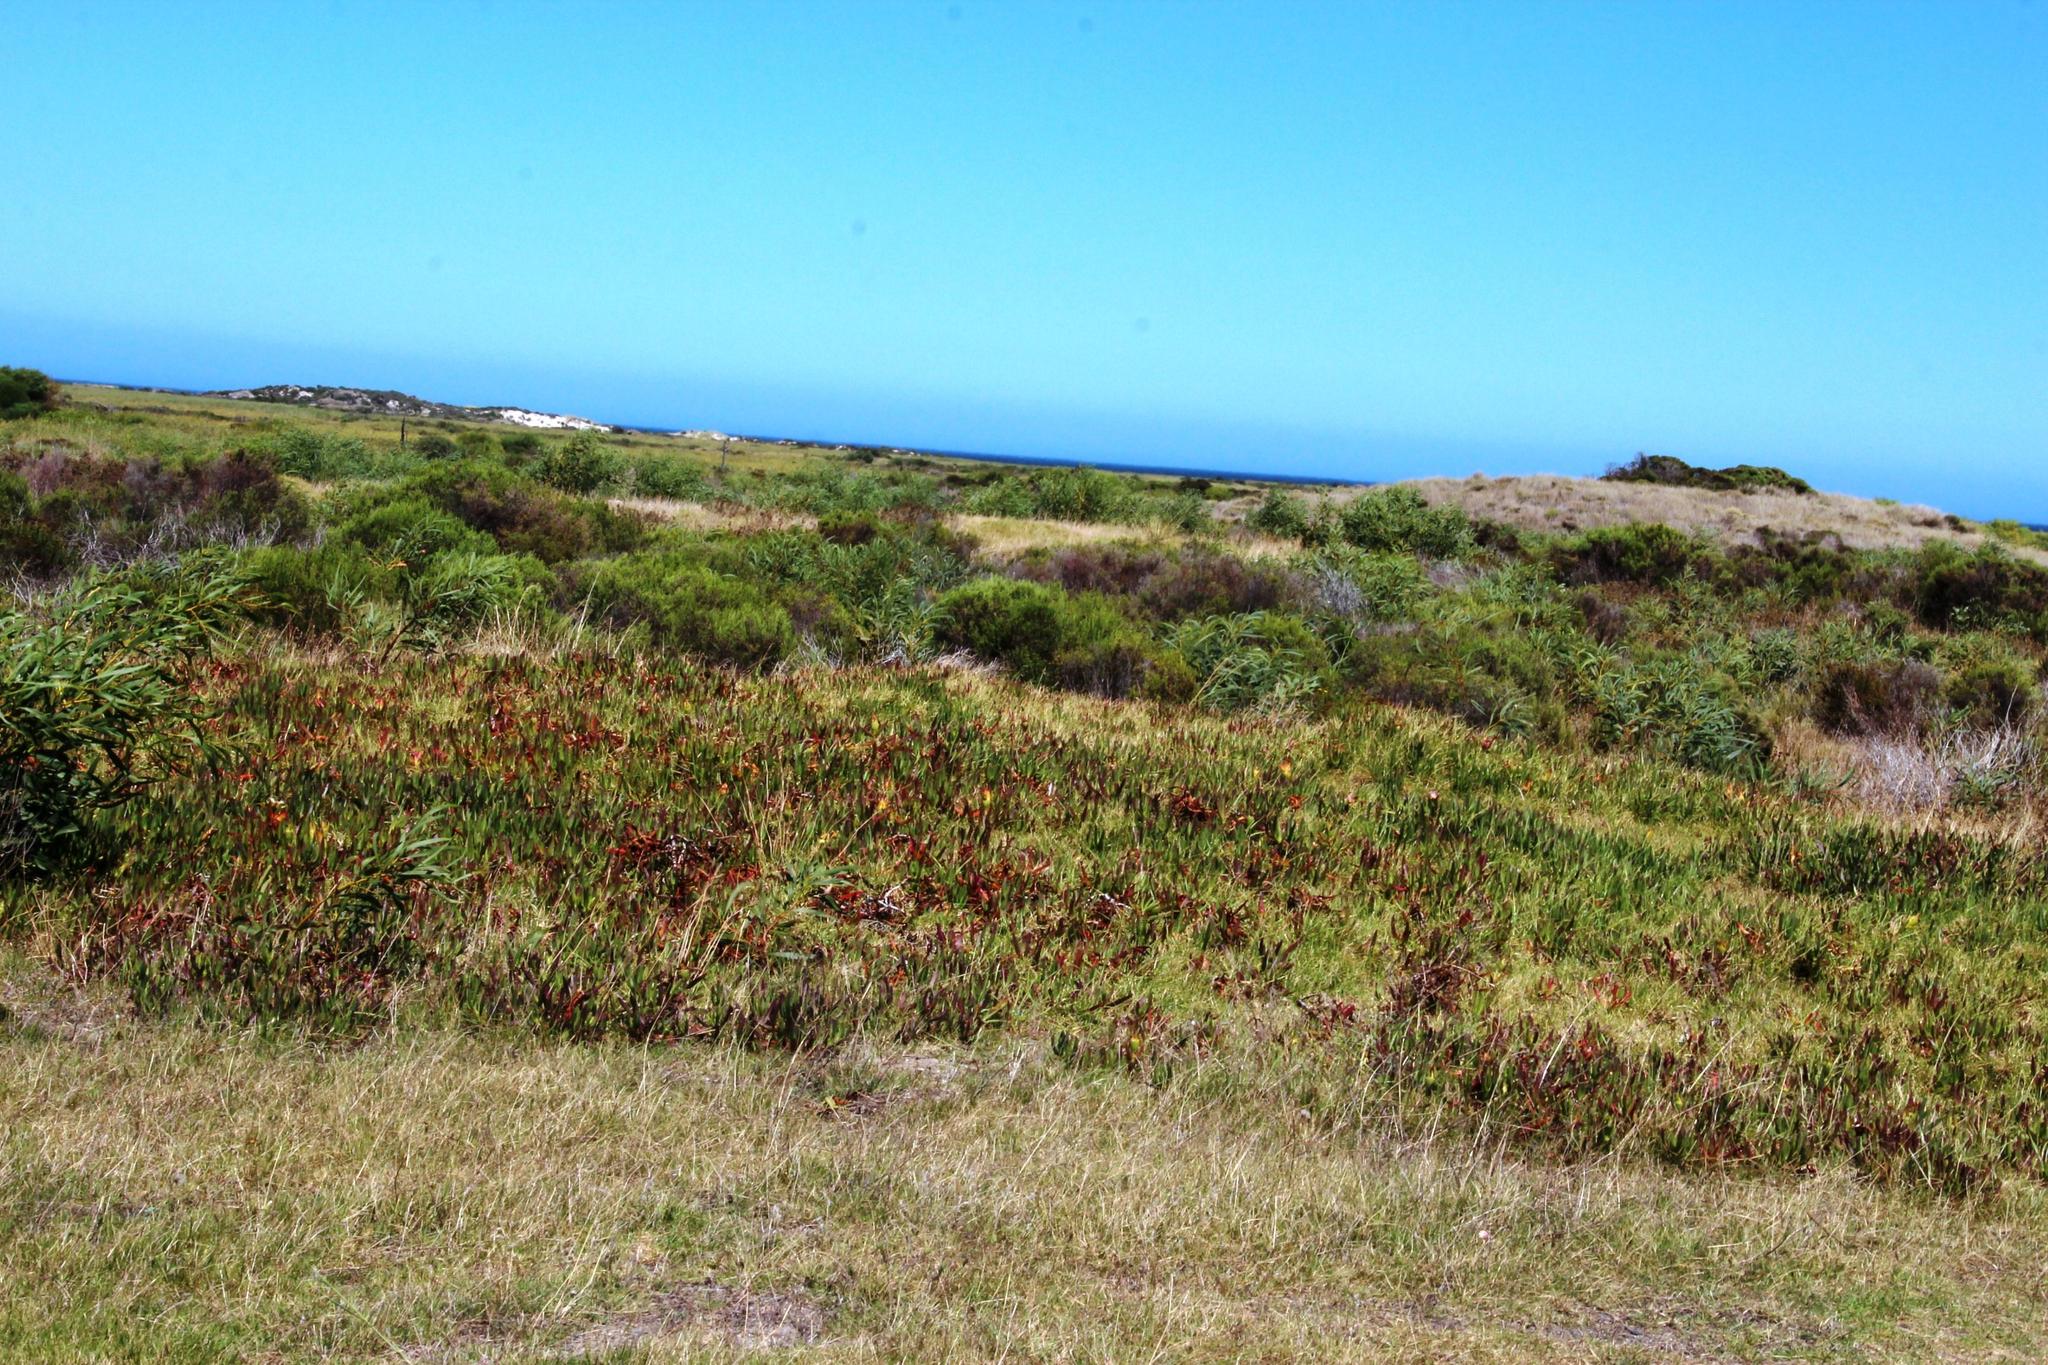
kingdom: Plantae
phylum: Tracheophyta
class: Magnoliopsida
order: Caryophyllales
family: Aizoaceae
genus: Carpobrotus
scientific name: Carpobrotus edulis
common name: Hottentot-fig
